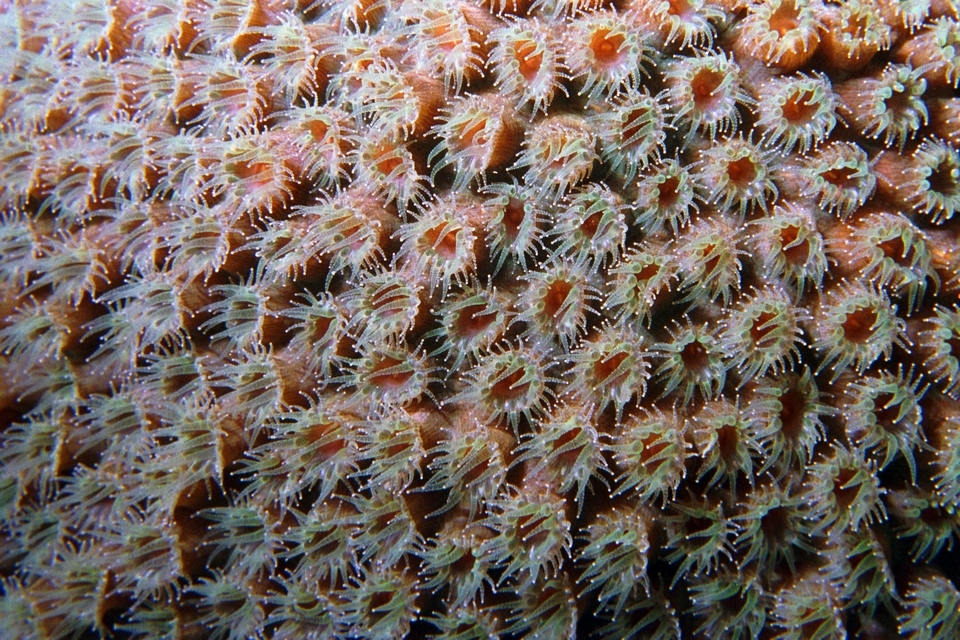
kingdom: Animalia
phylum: Cnidaria
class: Anthozoa
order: Scleractinia
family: Montastraeidae
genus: Montastraea
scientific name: Montastraea cavernosa
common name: Great star coral
